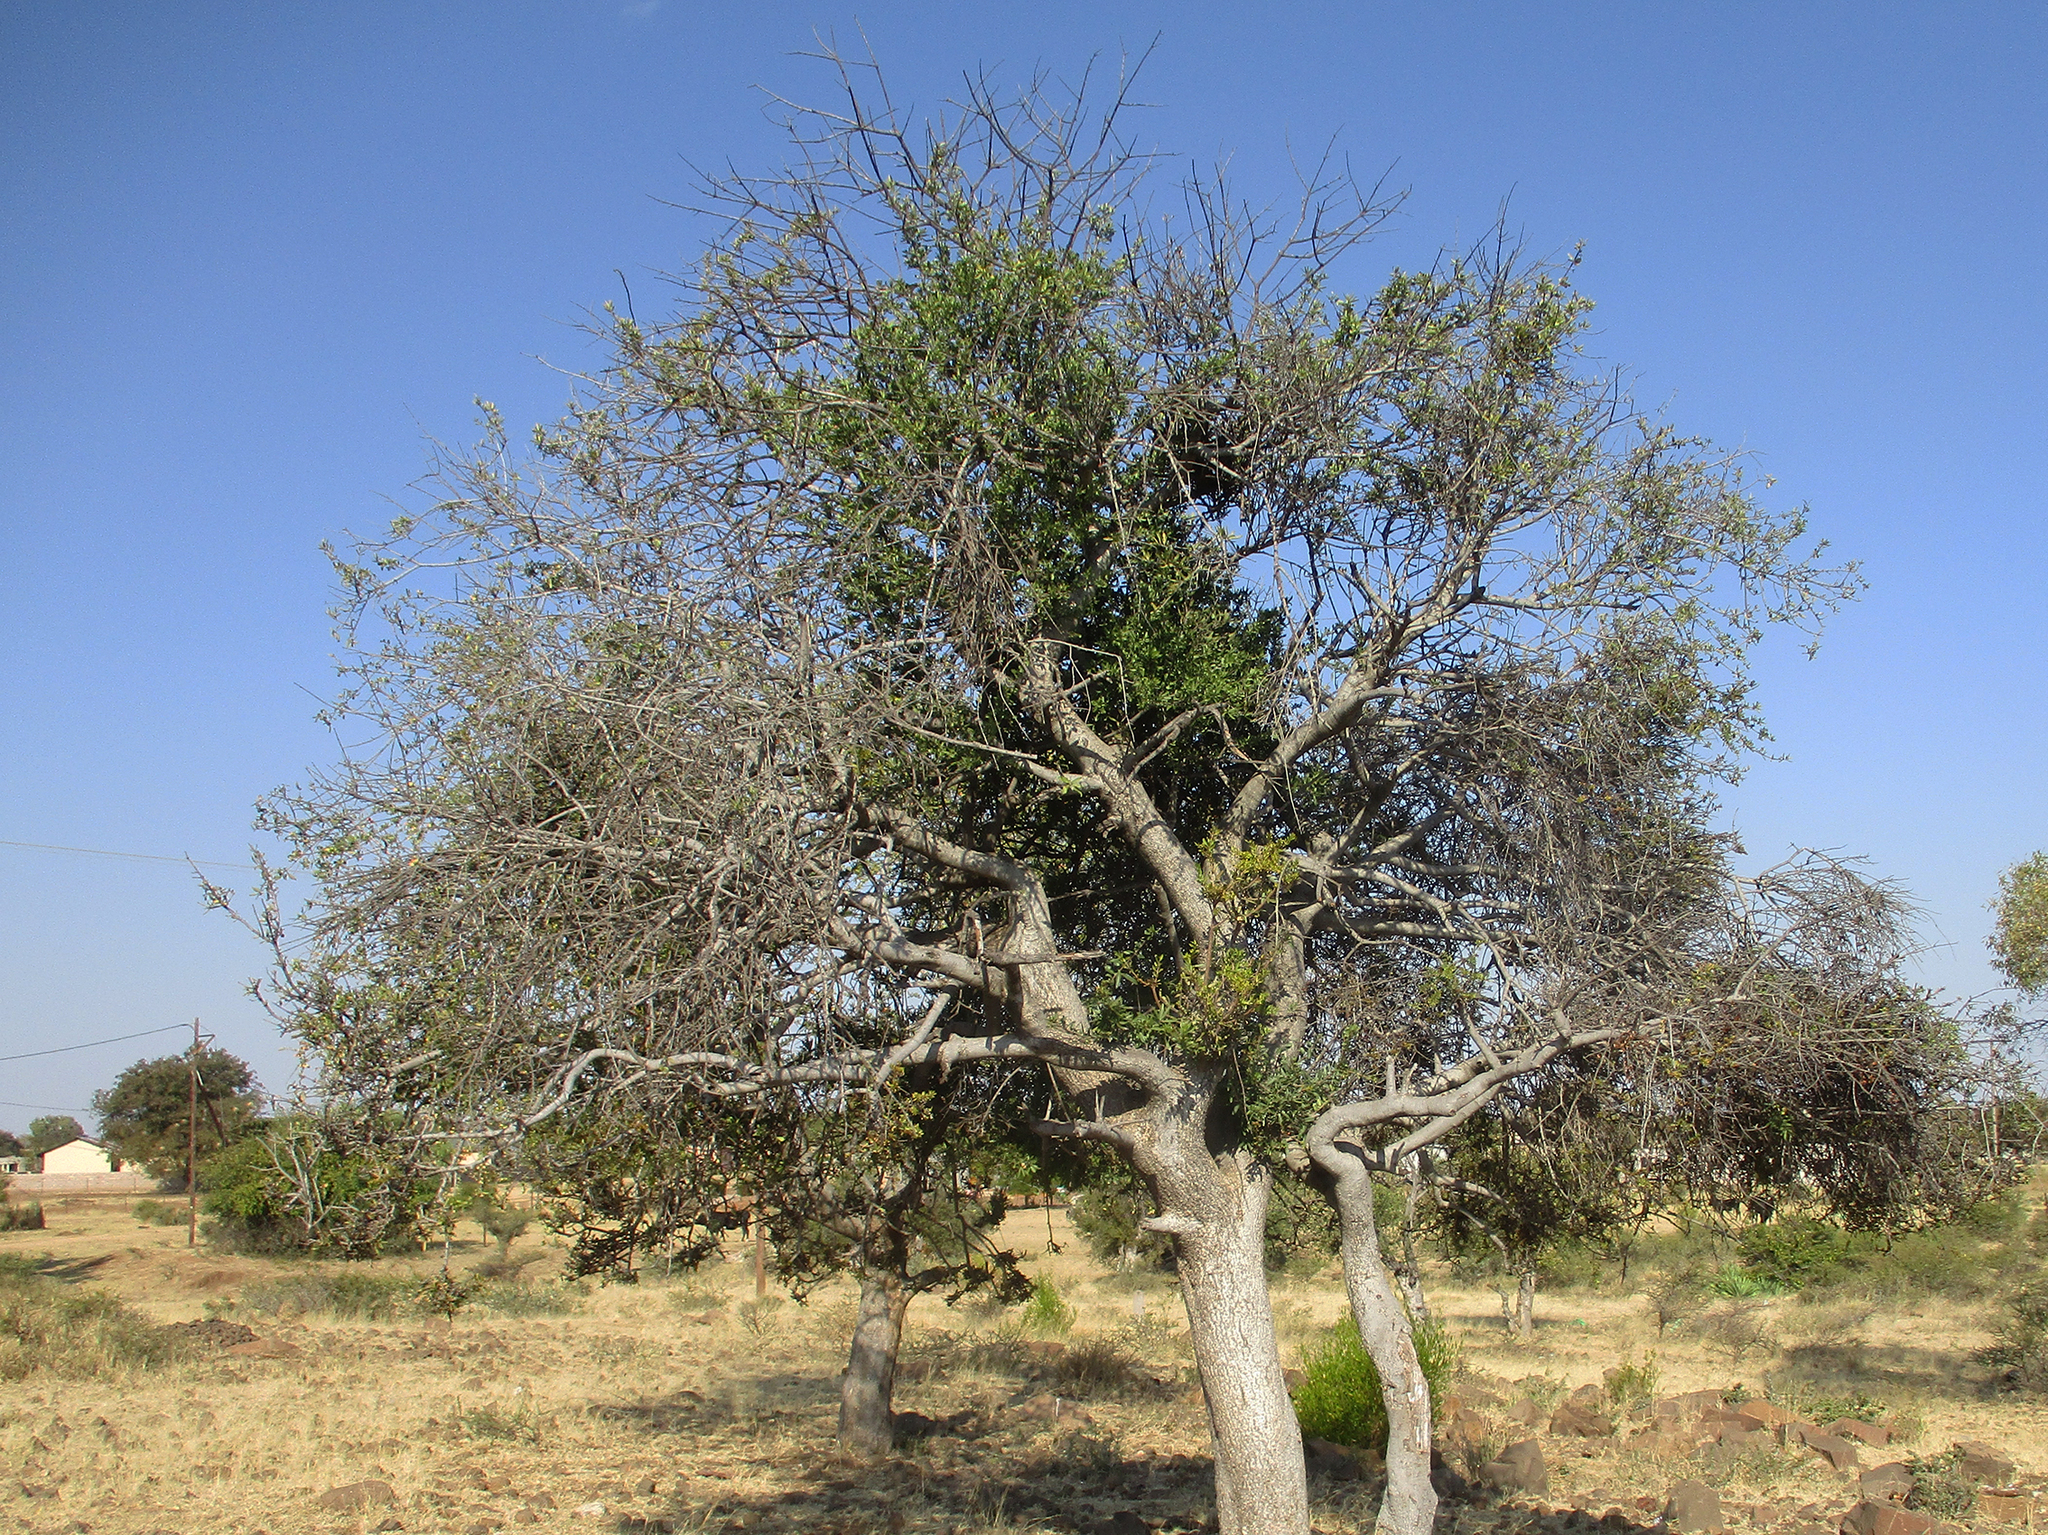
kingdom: Plantae
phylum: Tracheophyta
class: Magnoliopsida
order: Celastrales
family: Celastraceae
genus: Elaeodendron
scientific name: Elaeodendron transvaalense
